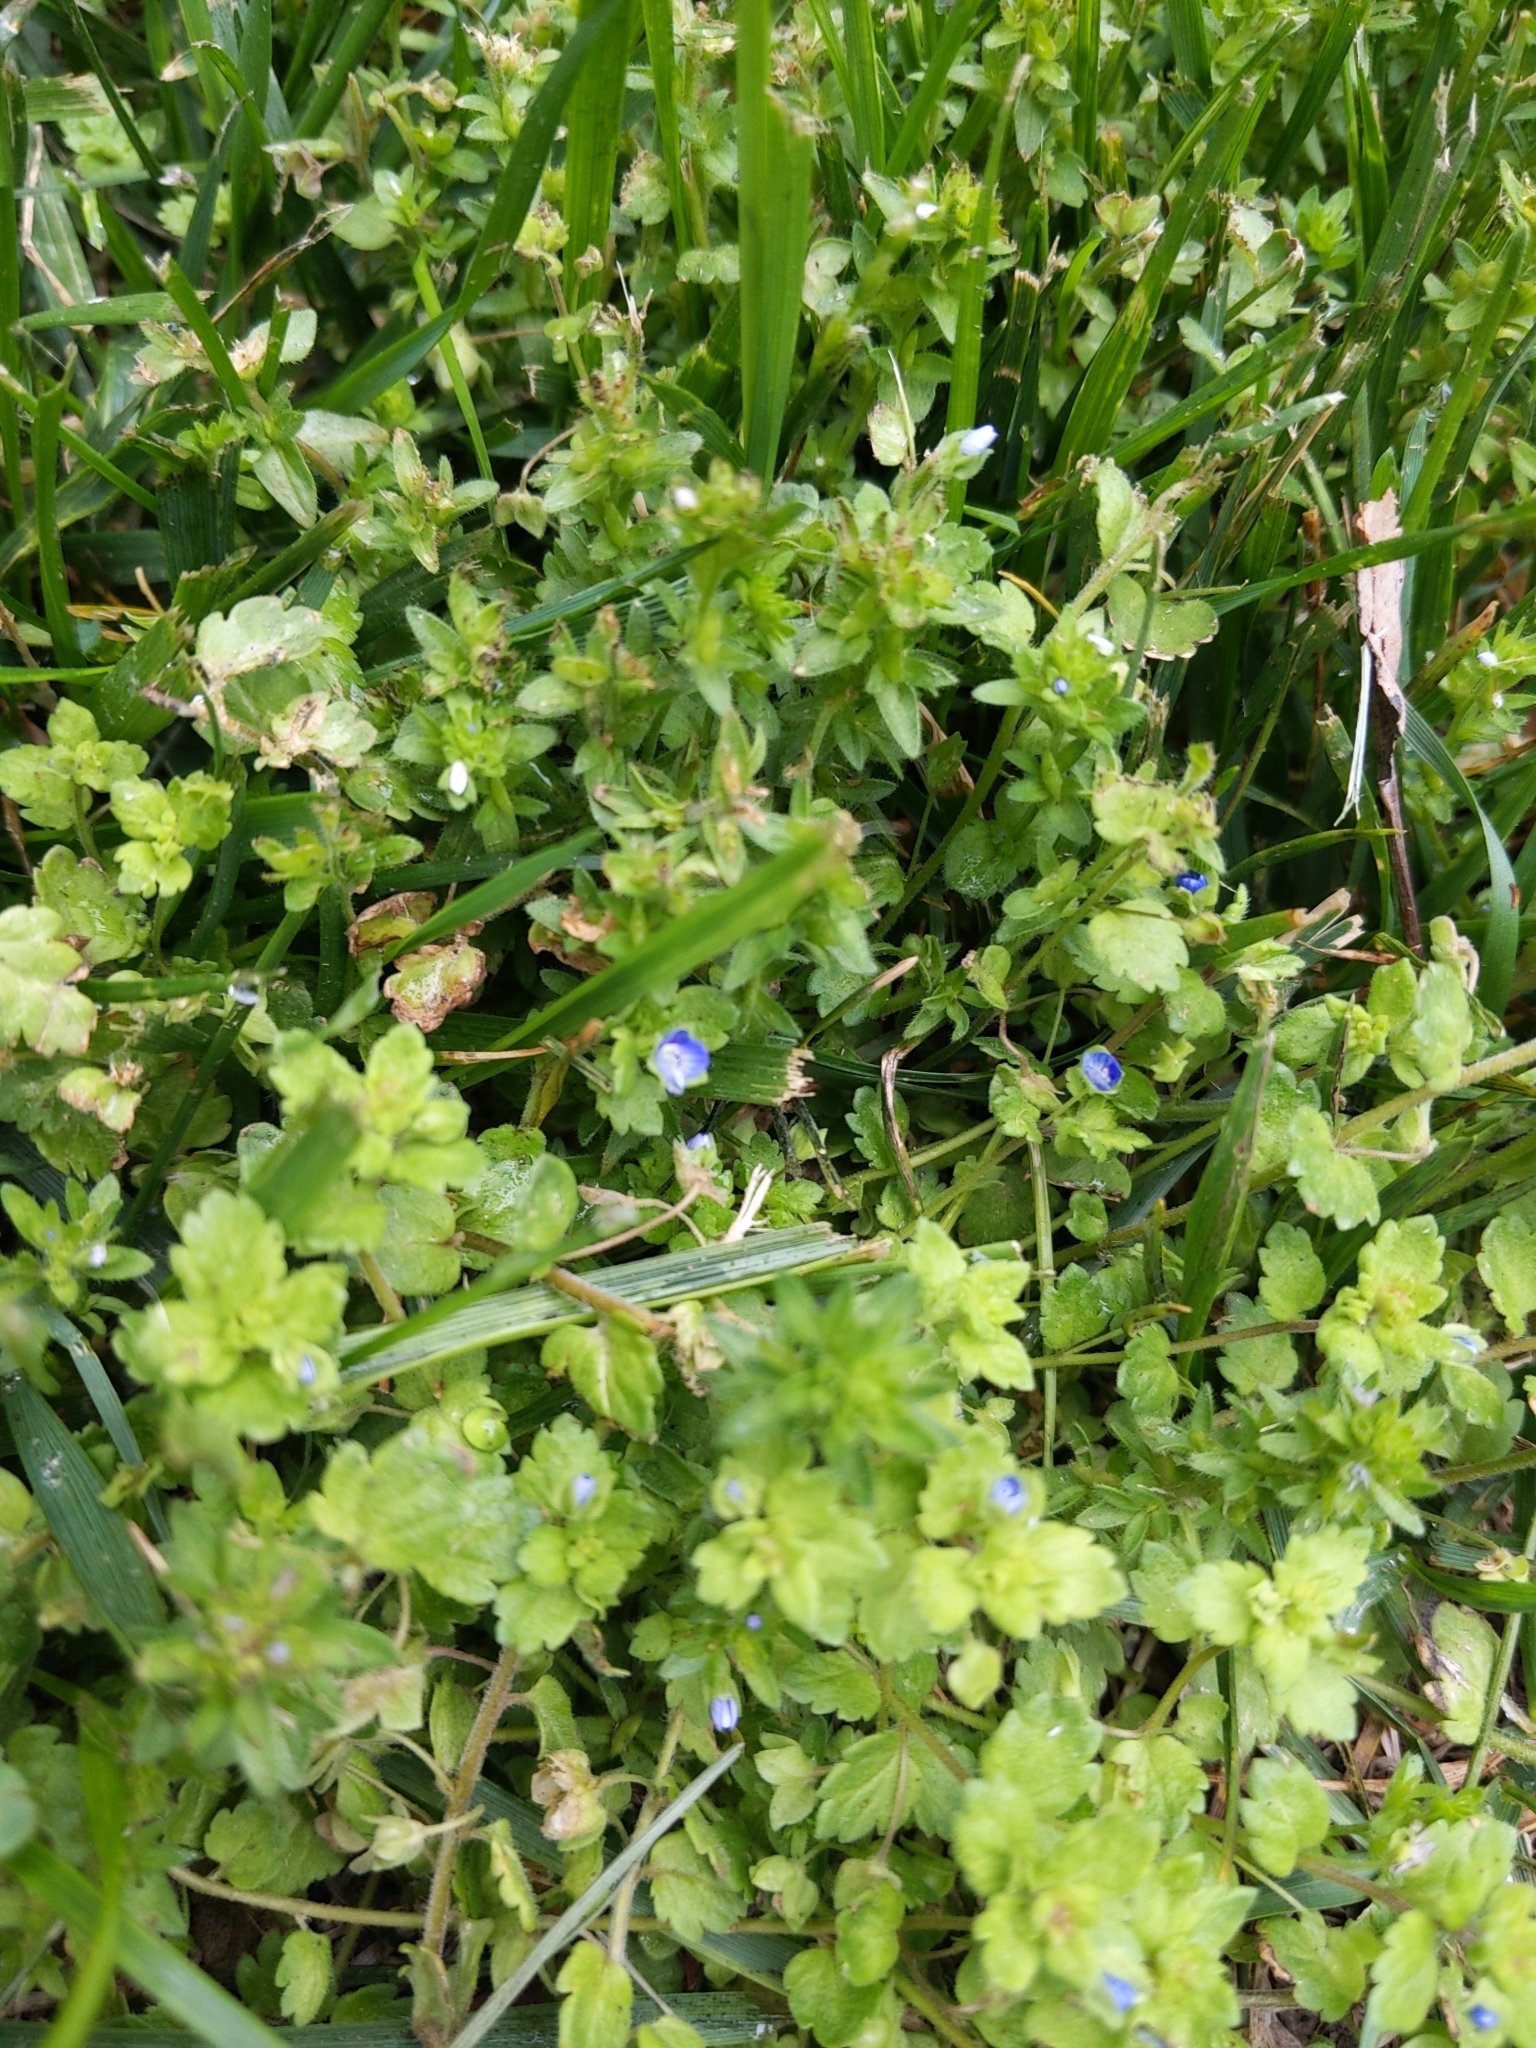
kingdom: Plantae
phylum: Tracheophyta
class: Magnoliopsida
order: Lamiales
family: Plantaginaceae
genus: Veronica
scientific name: Veronica arvensis
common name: Corn speedwell
